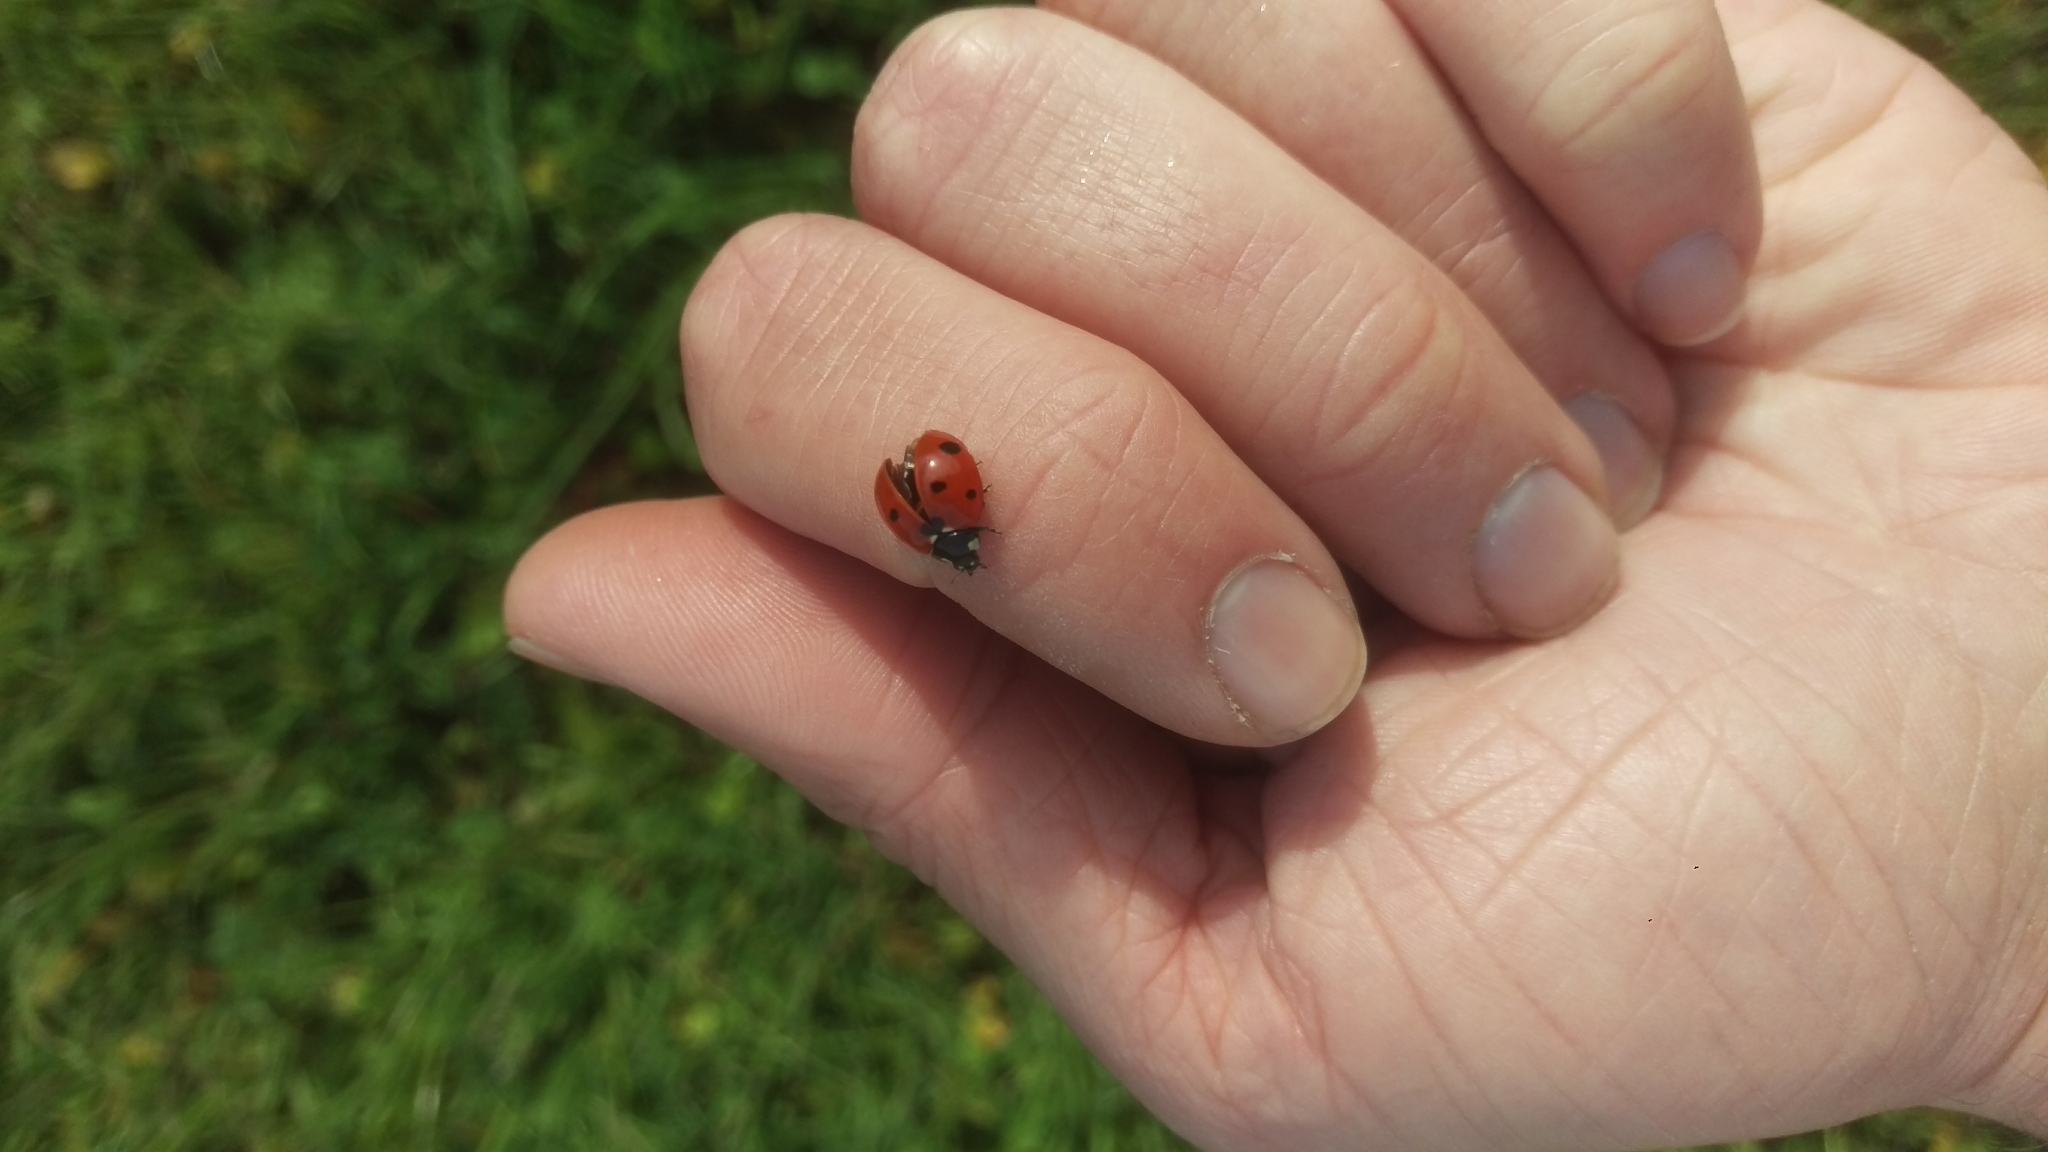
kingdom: Animalia
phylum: Arthropoda
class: Insecta
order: Coleoptera
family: Coccinellidae
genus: Coccinella
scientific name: Coccinella septempunctata
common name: Sevenspotted lady beetle
